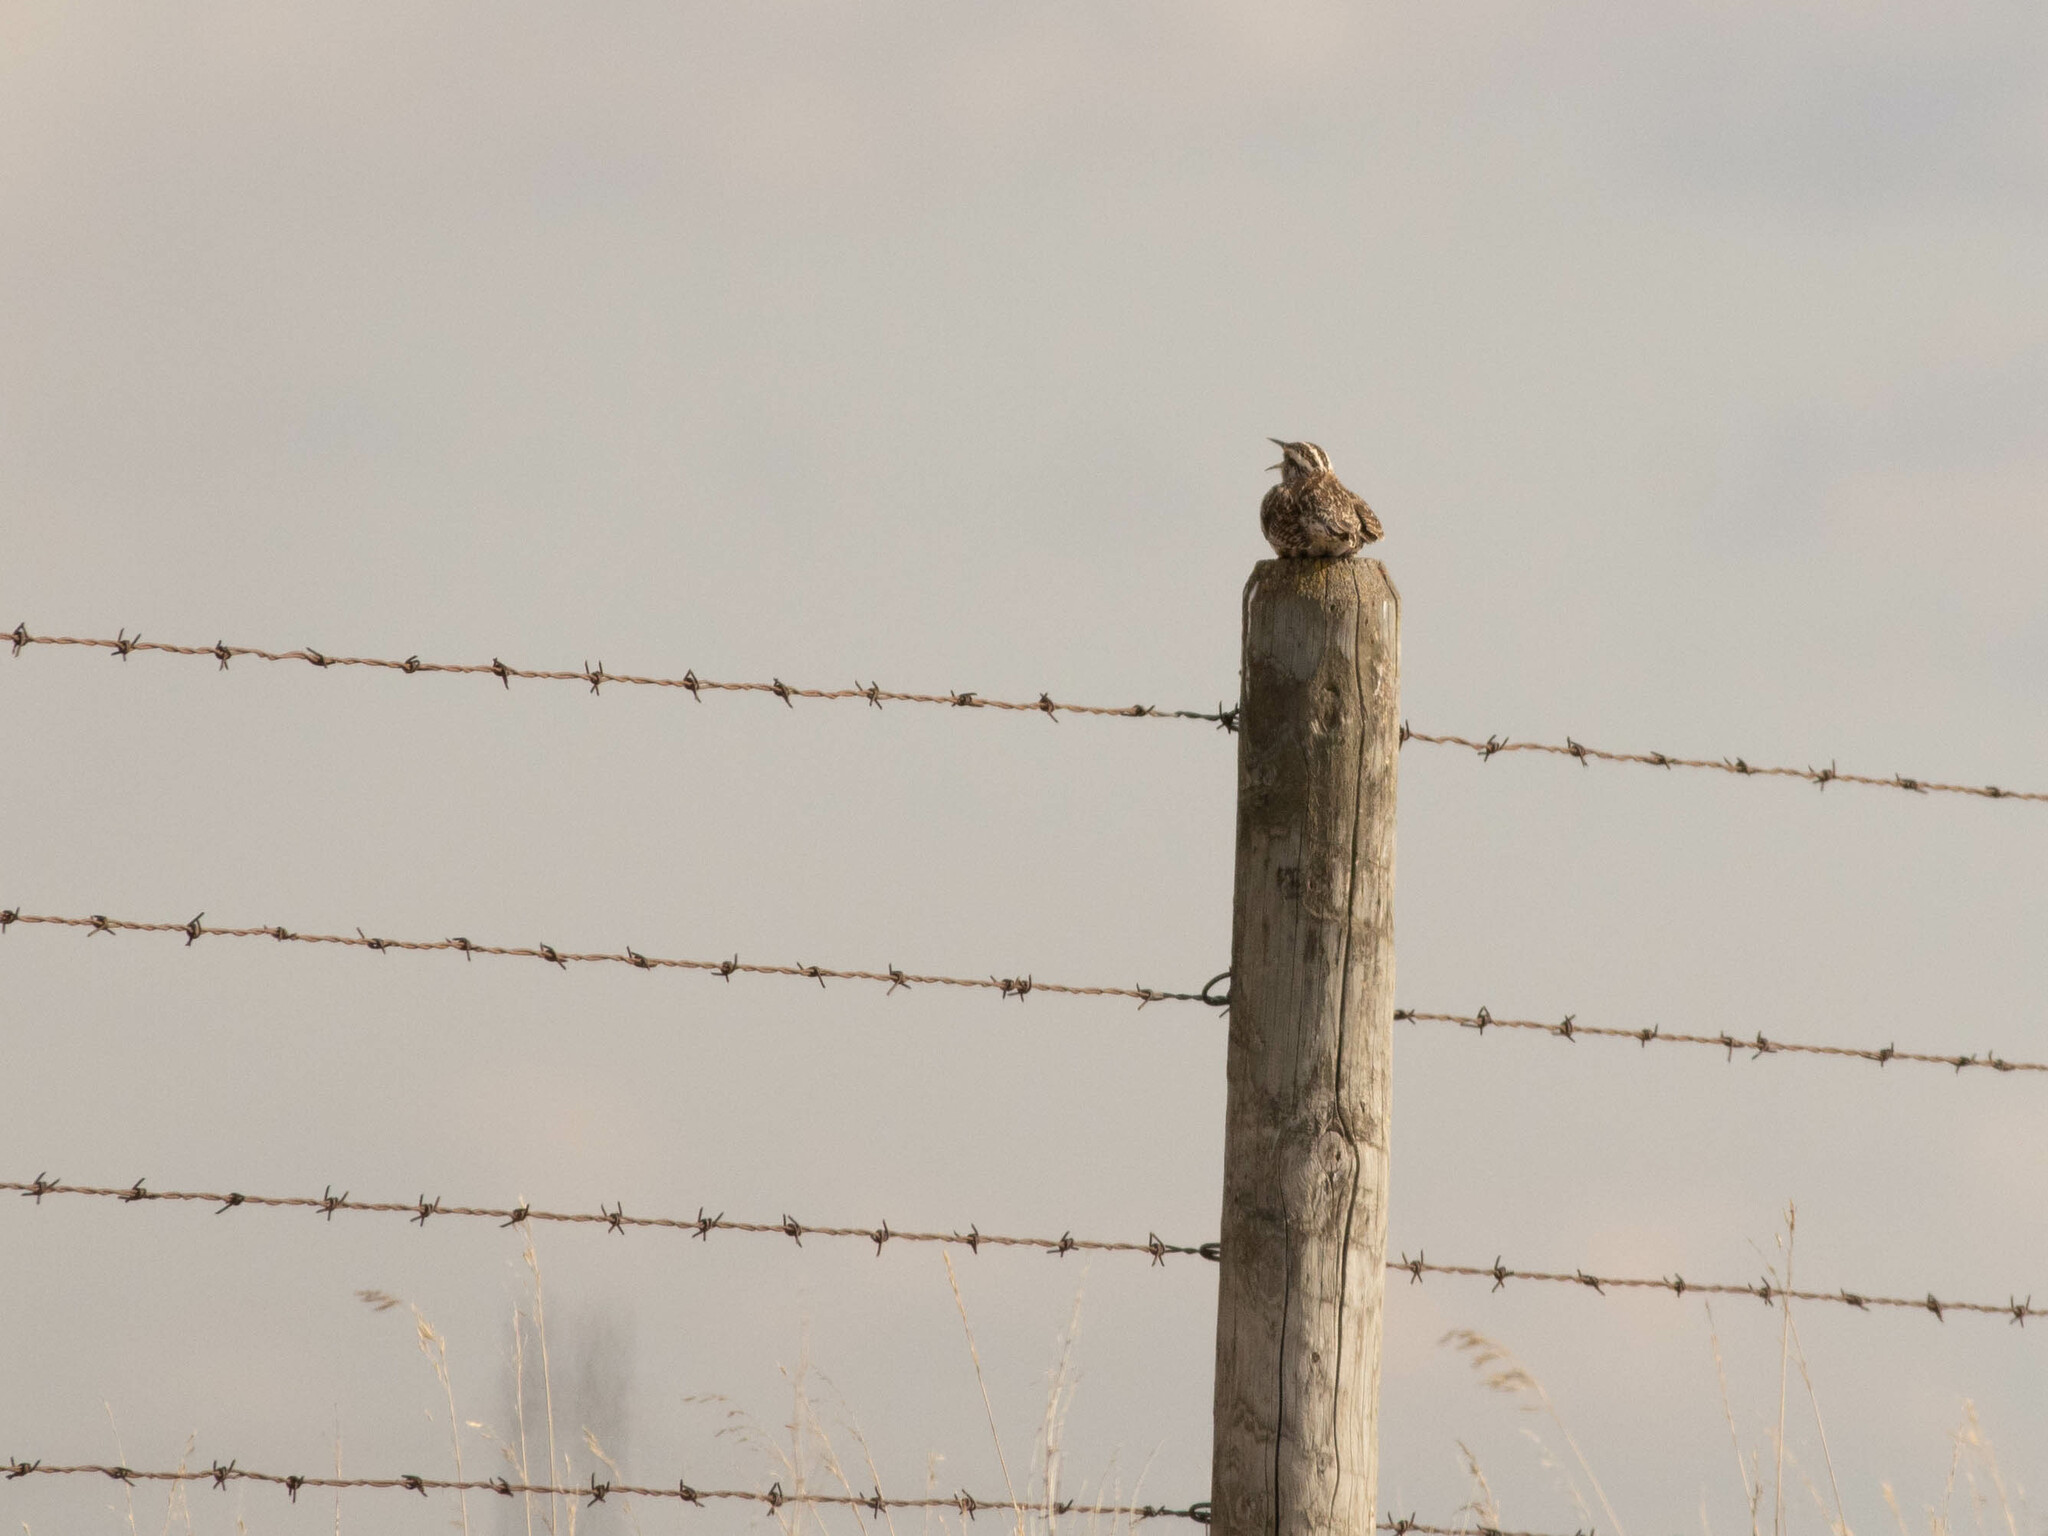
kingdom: Animalia
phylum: Chordata
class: Aves
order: Passeriformes
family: Icteridae
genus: Sturnella
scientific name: Sturnella neglecta
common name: Western meadowlark
